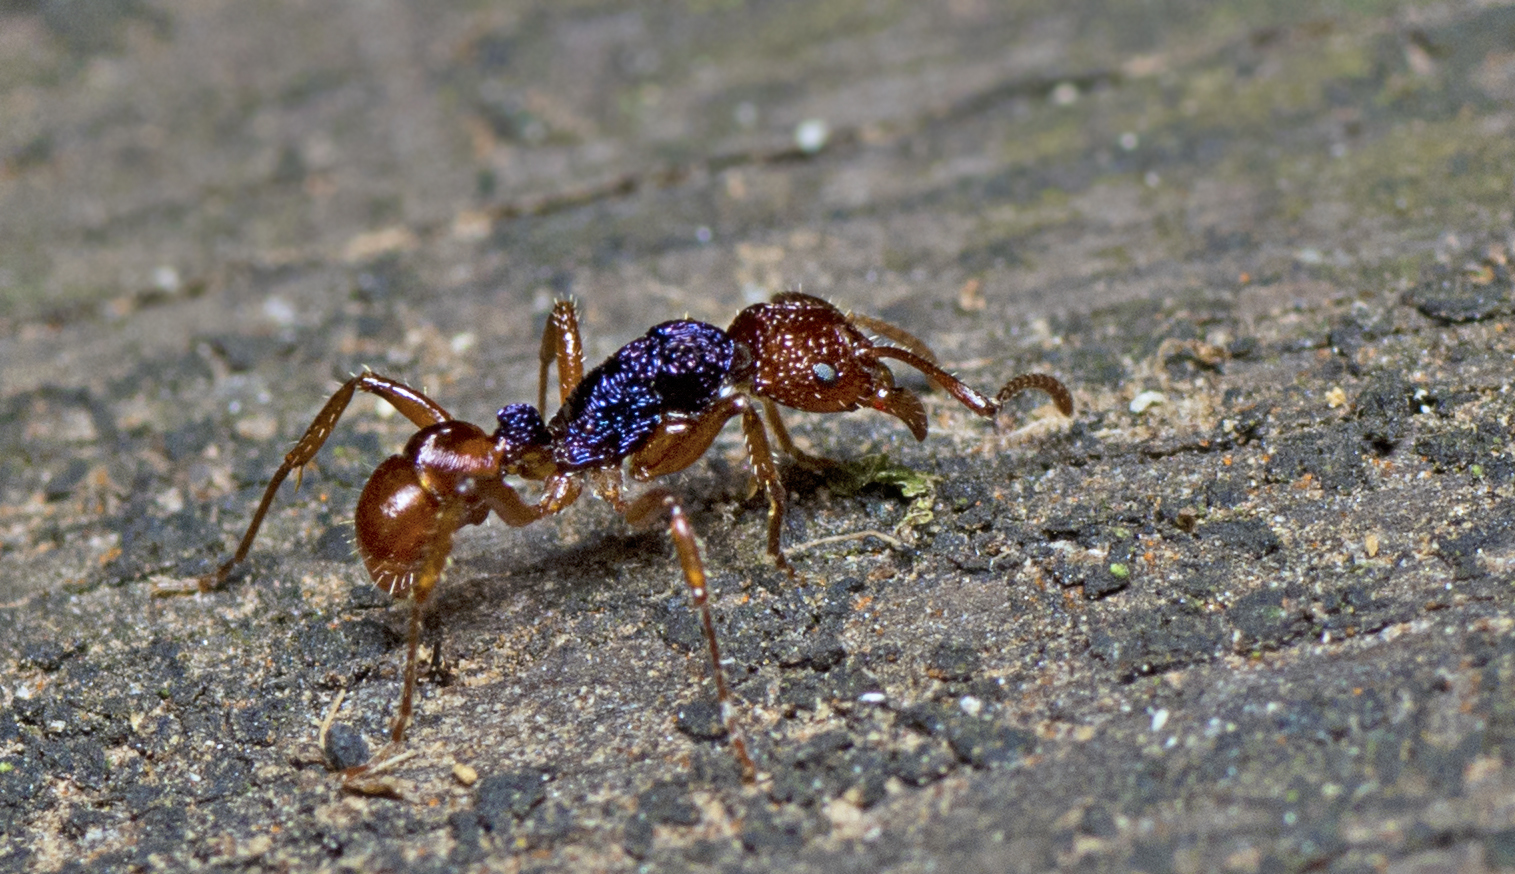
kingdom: Animalia
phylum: Arthropoda
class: Insecta
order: Hymenoptera
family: Formicidae
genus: Rhytidoponera
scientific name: Rhytidoponera croesus
